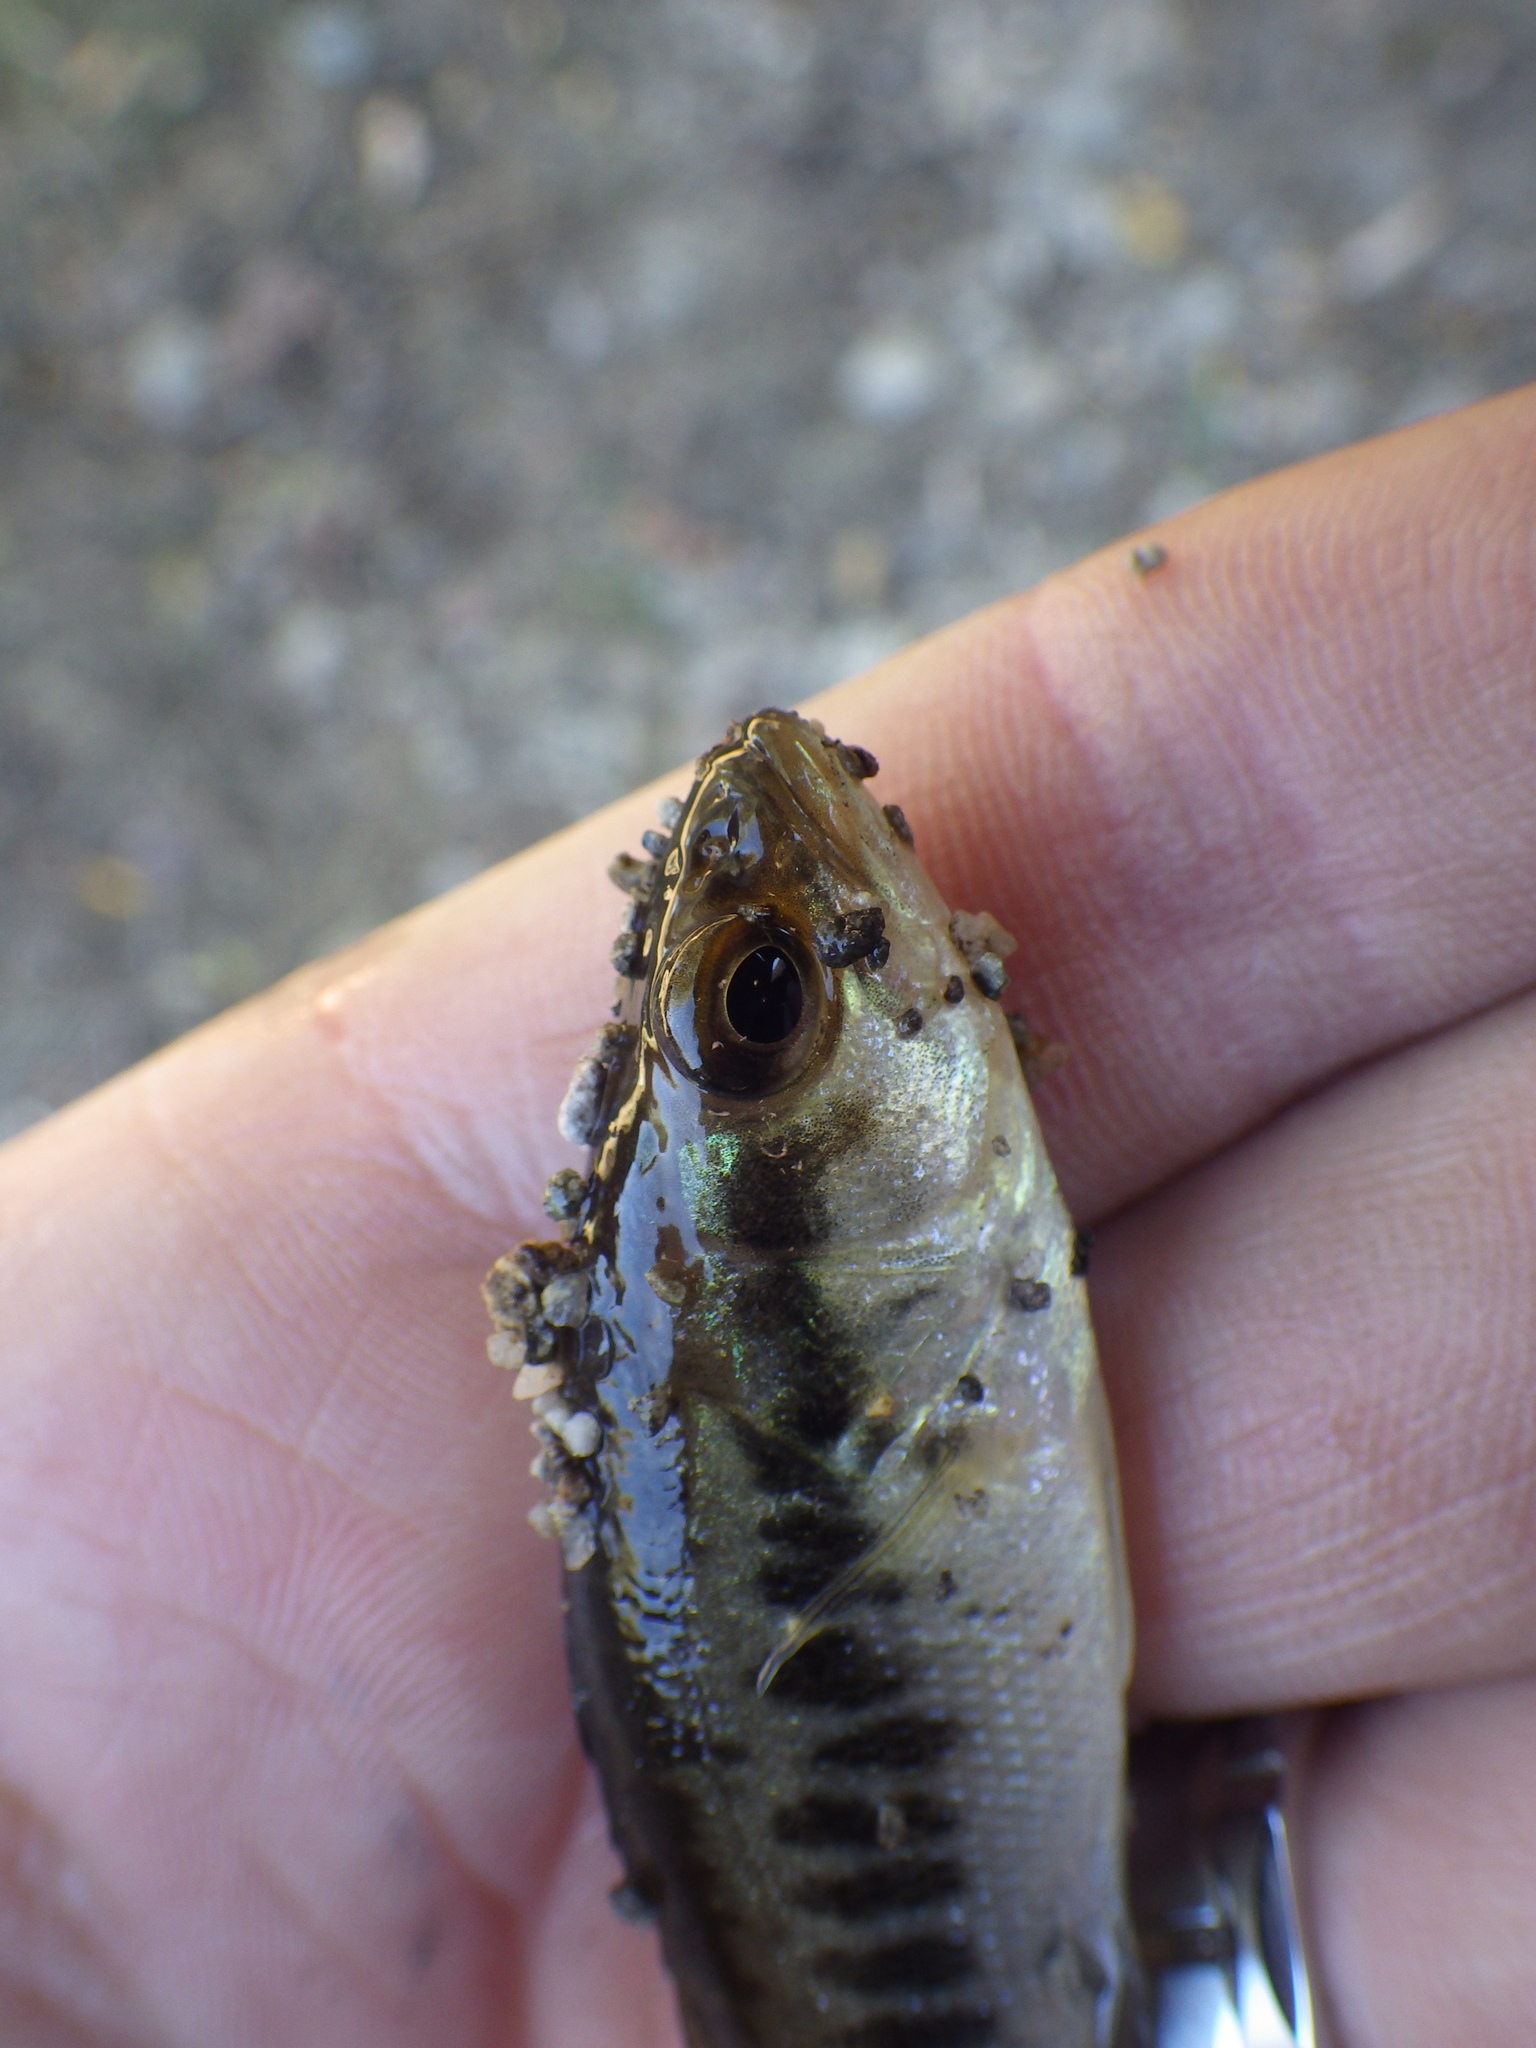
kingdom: Animalia
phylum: Chordata
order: Perciformes
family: Centrarchidae
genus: Micropterus
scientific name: Micropterus punctulatus
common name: Spotted bass
